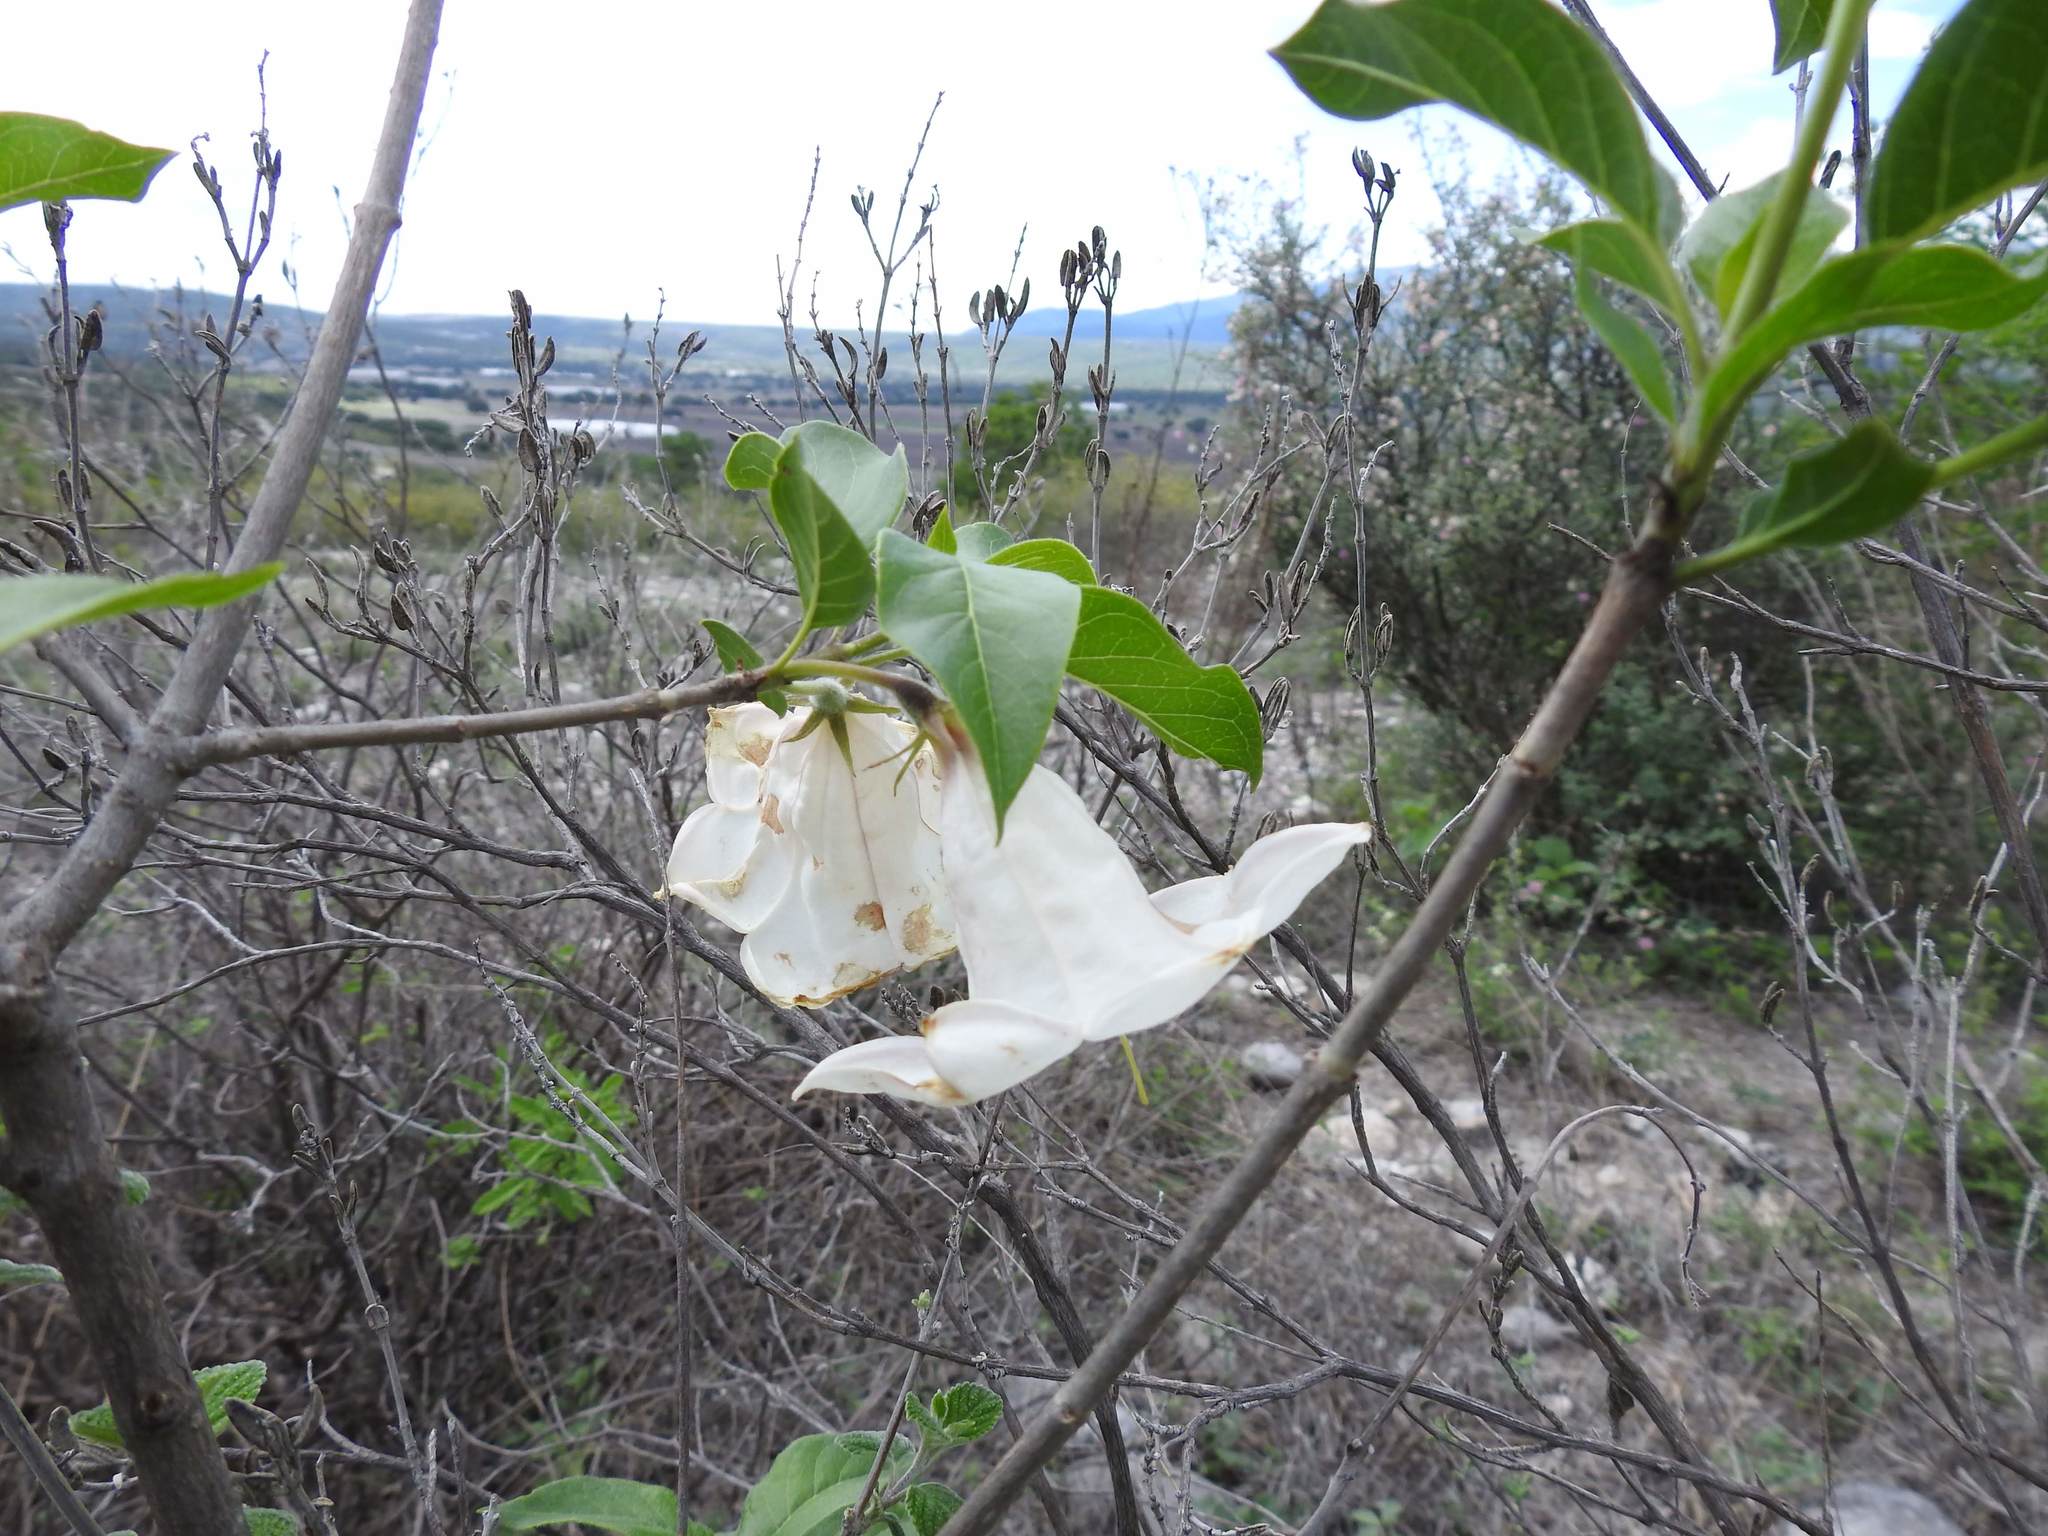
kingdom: Plantae
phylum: Tracheophyta
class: Magnoliopsida
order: Gentianales
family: Rubiaceae
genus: Hintonia
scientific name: Hintonia latiflora
